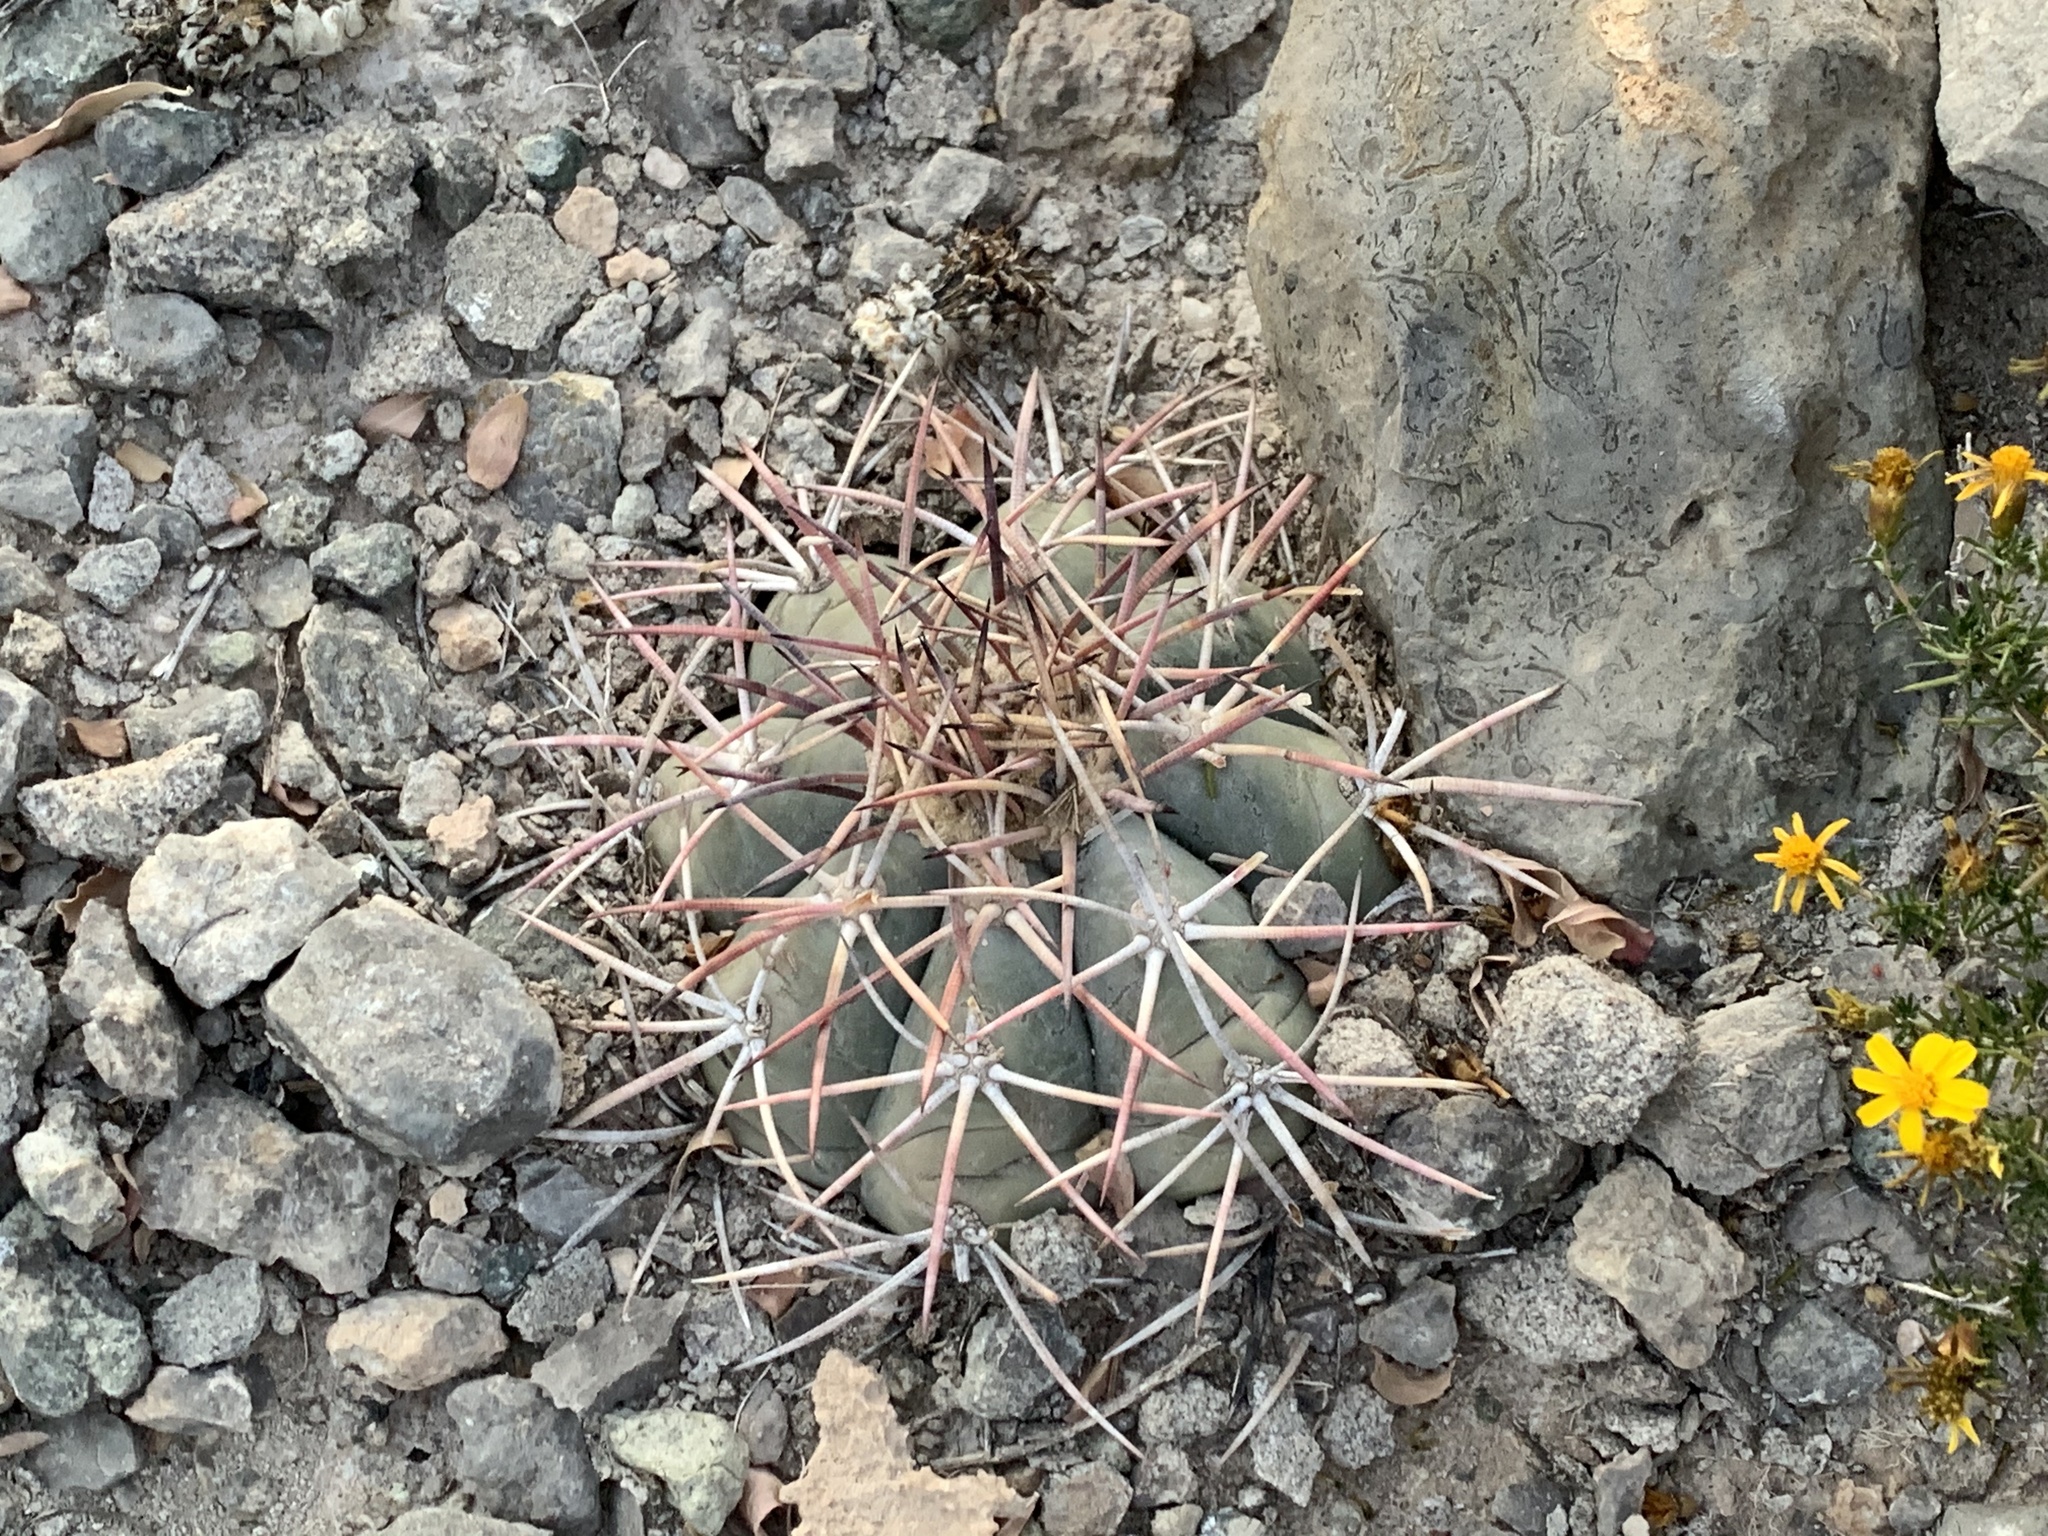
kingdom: Plantae
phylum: Tracheophyta
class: Magnoliopsida
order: Caryophyllales
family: Cactaceae
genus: Echinocactus
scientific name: Echinocactus horizonthalonius
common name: Devilshead
